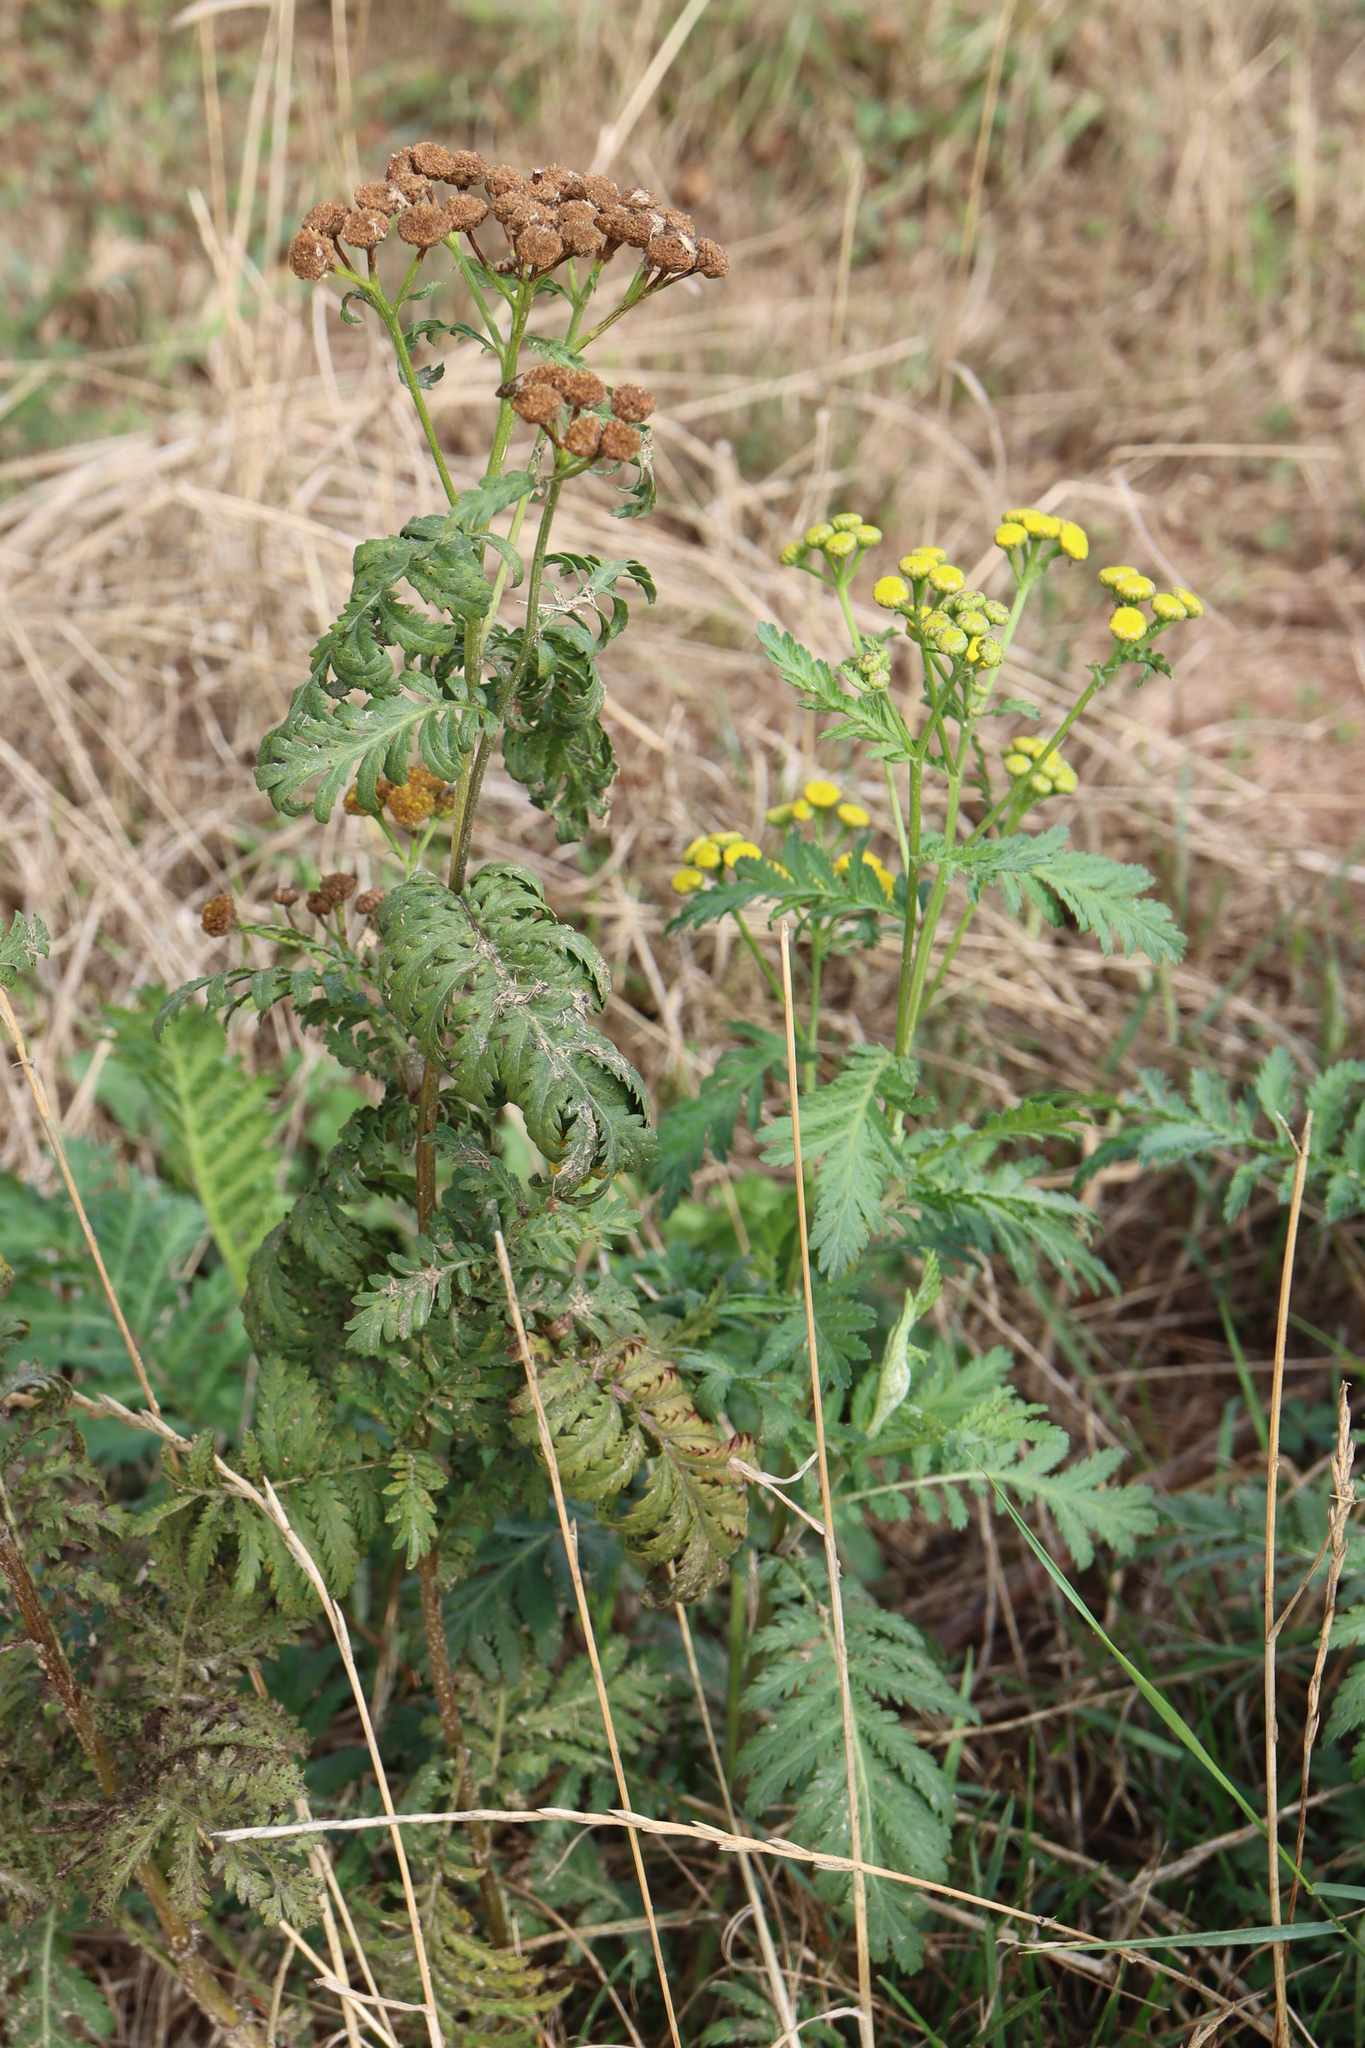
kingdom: Plantae
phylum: Tracheophyta
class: Magnoliopsida
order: Asterales
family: Asteraceae
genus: Tanacetum
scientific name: Tanacetum vulgare
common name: Common tansy
